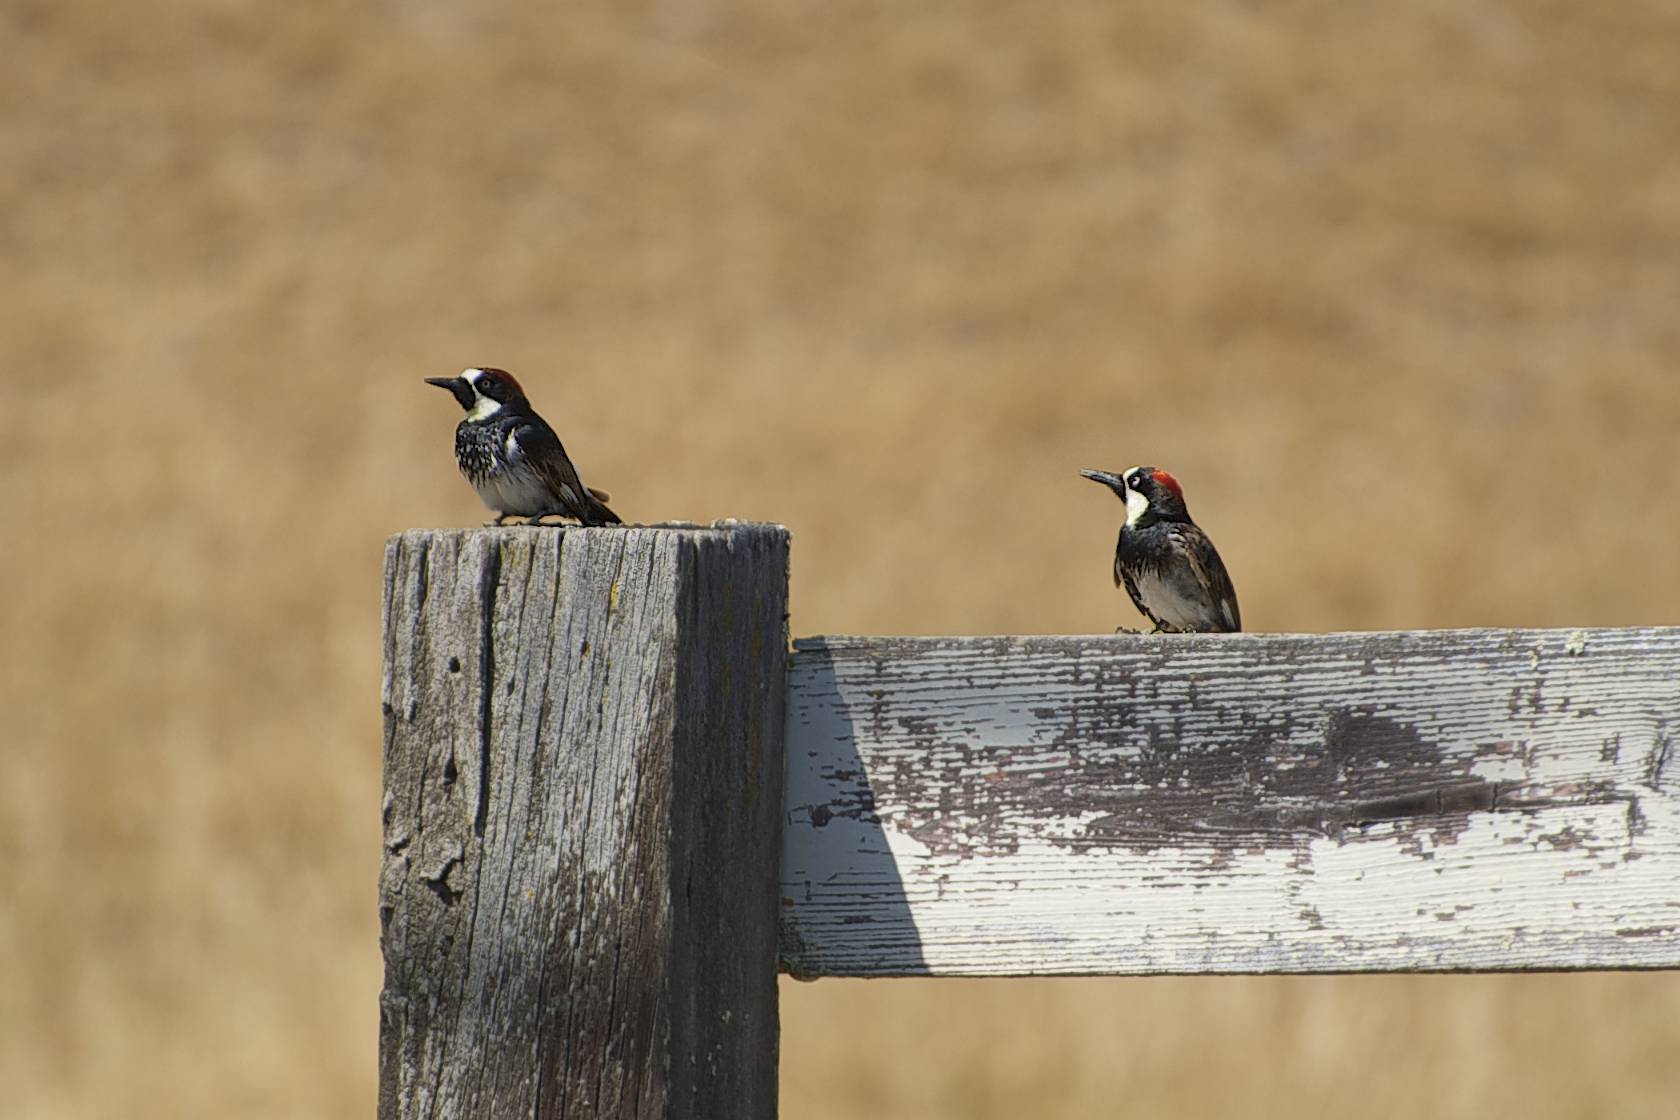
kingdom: Animalia
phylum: Chordata
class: Aves
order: Piciformes
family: Picidae
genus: Melanerpes
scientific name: Melanerpes formicivorus
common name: Acorn woodpecker
